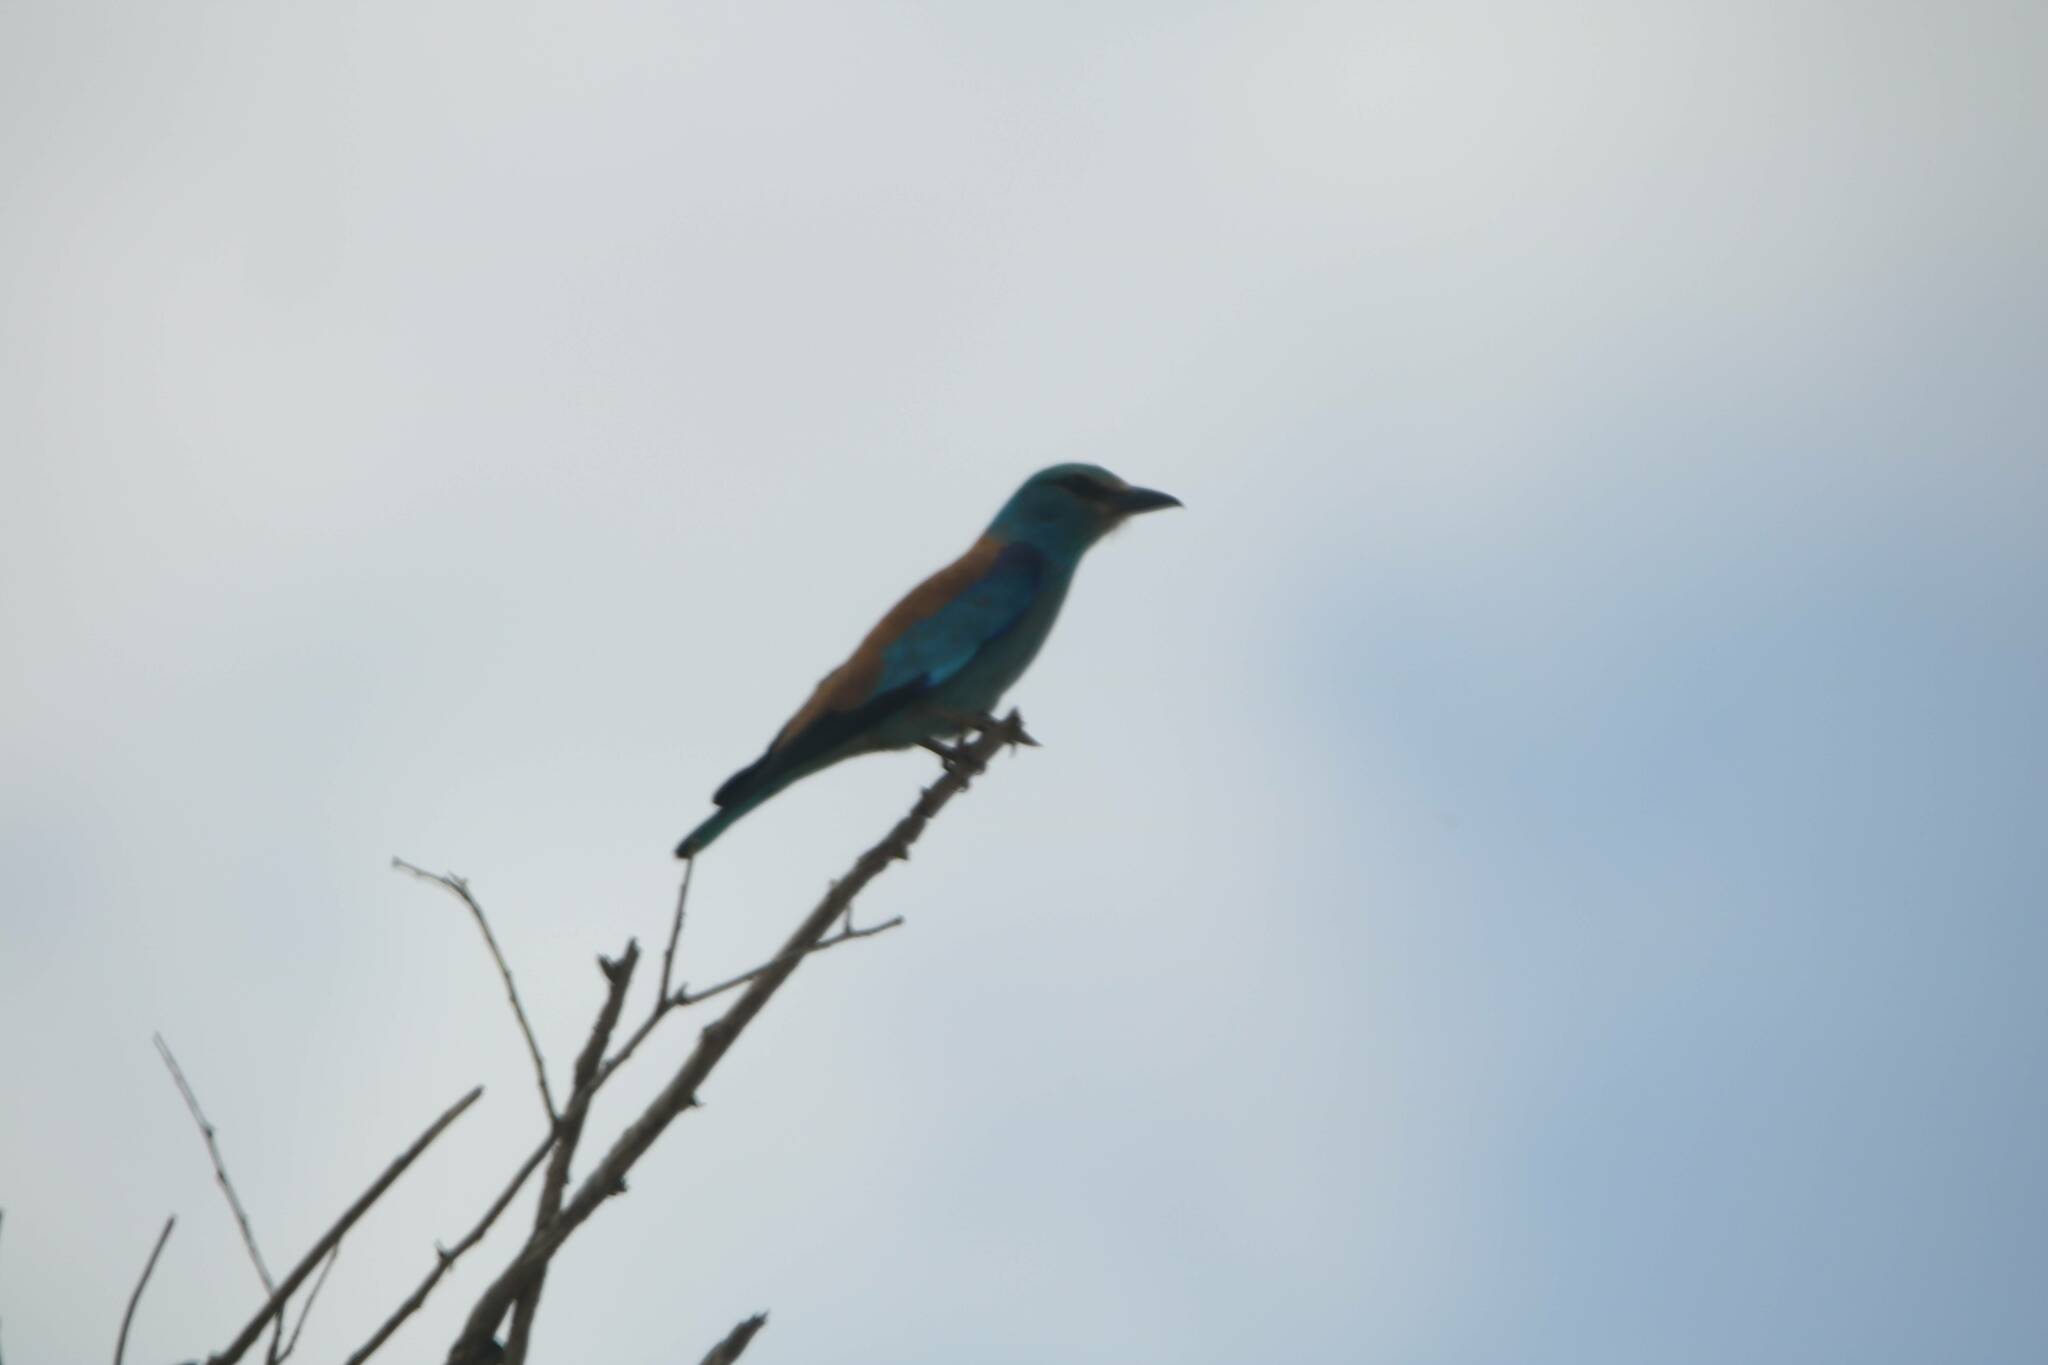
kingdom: Animalia
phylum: Chordata
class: Aves
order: Coraciiformes
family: Coraciidae
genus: Coracias
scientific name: Coracias garrulus
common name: European roller
